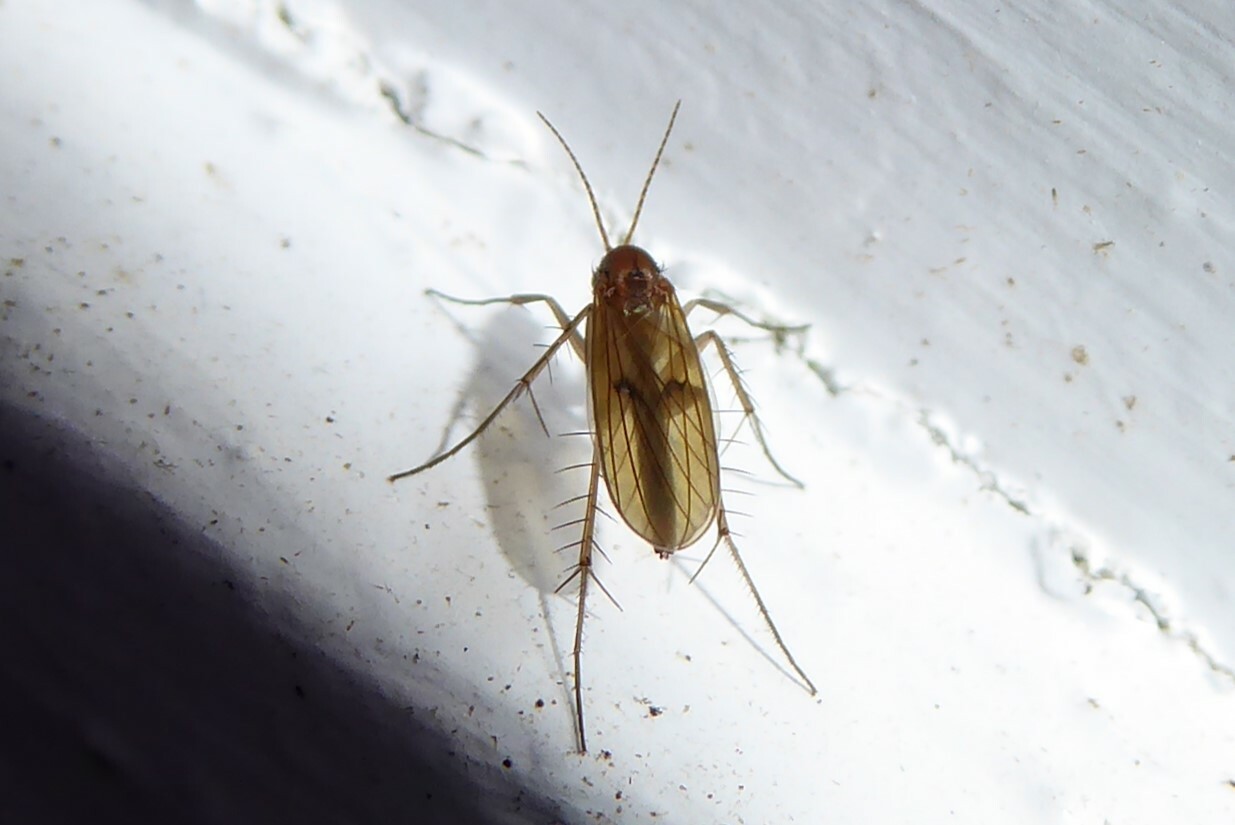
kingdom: Animalia
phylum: Arthropoda
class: Insecta
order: Diptera
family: Mycetophilidae
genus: Mycetophila
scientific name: Mycetophila fagi
